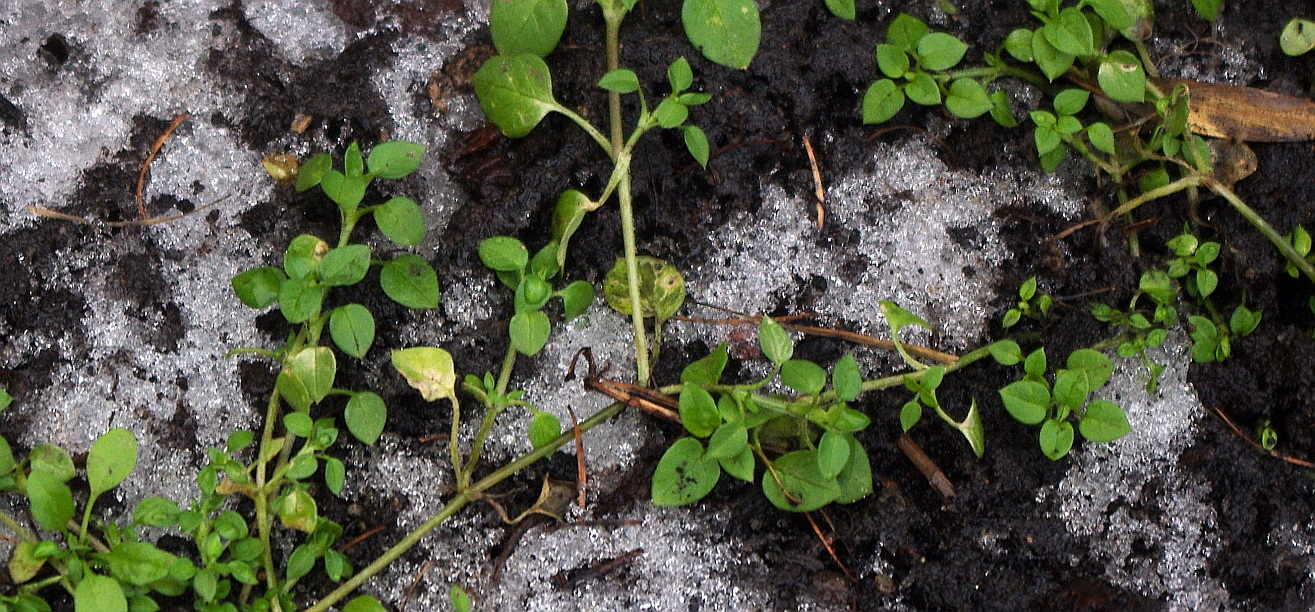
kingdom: Plantae
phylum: Tracheophyta
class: Magnoliopsida
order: Caryophyllales
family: Caryophyllaceae
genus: Stellaria
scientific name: Stellaria media
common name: Common chickweed
